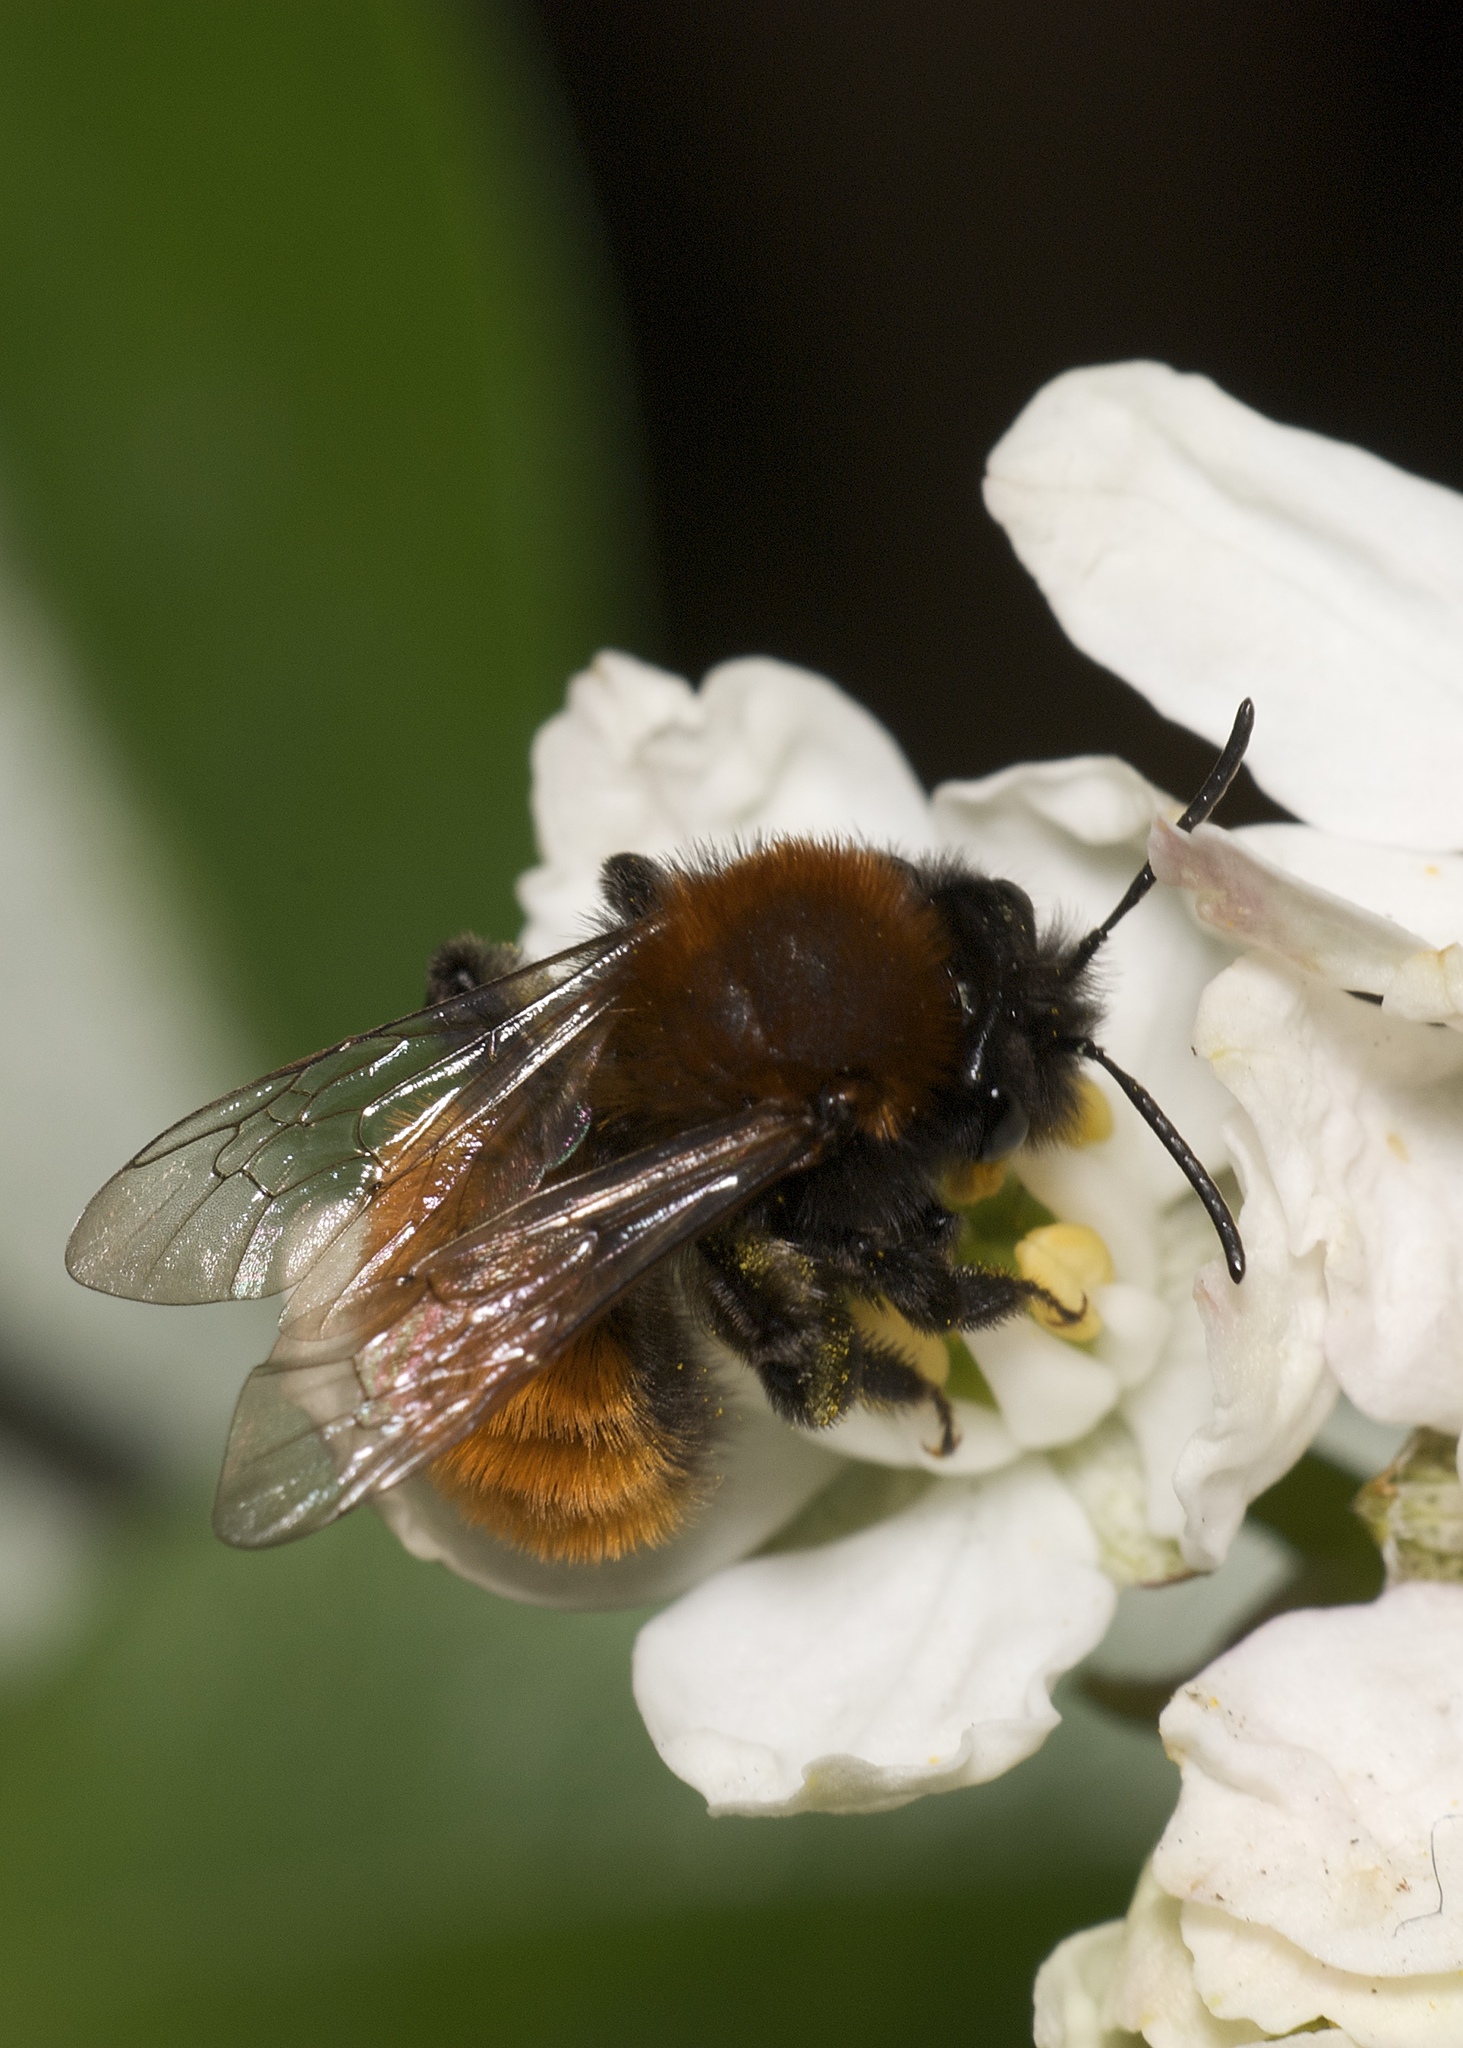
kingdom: Animalia
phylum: Arthropoda
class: Insecta
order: Hymenoptera
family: Andrenidae
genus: Andrena
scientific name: Andrena fulva
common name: Tawny mining bee
